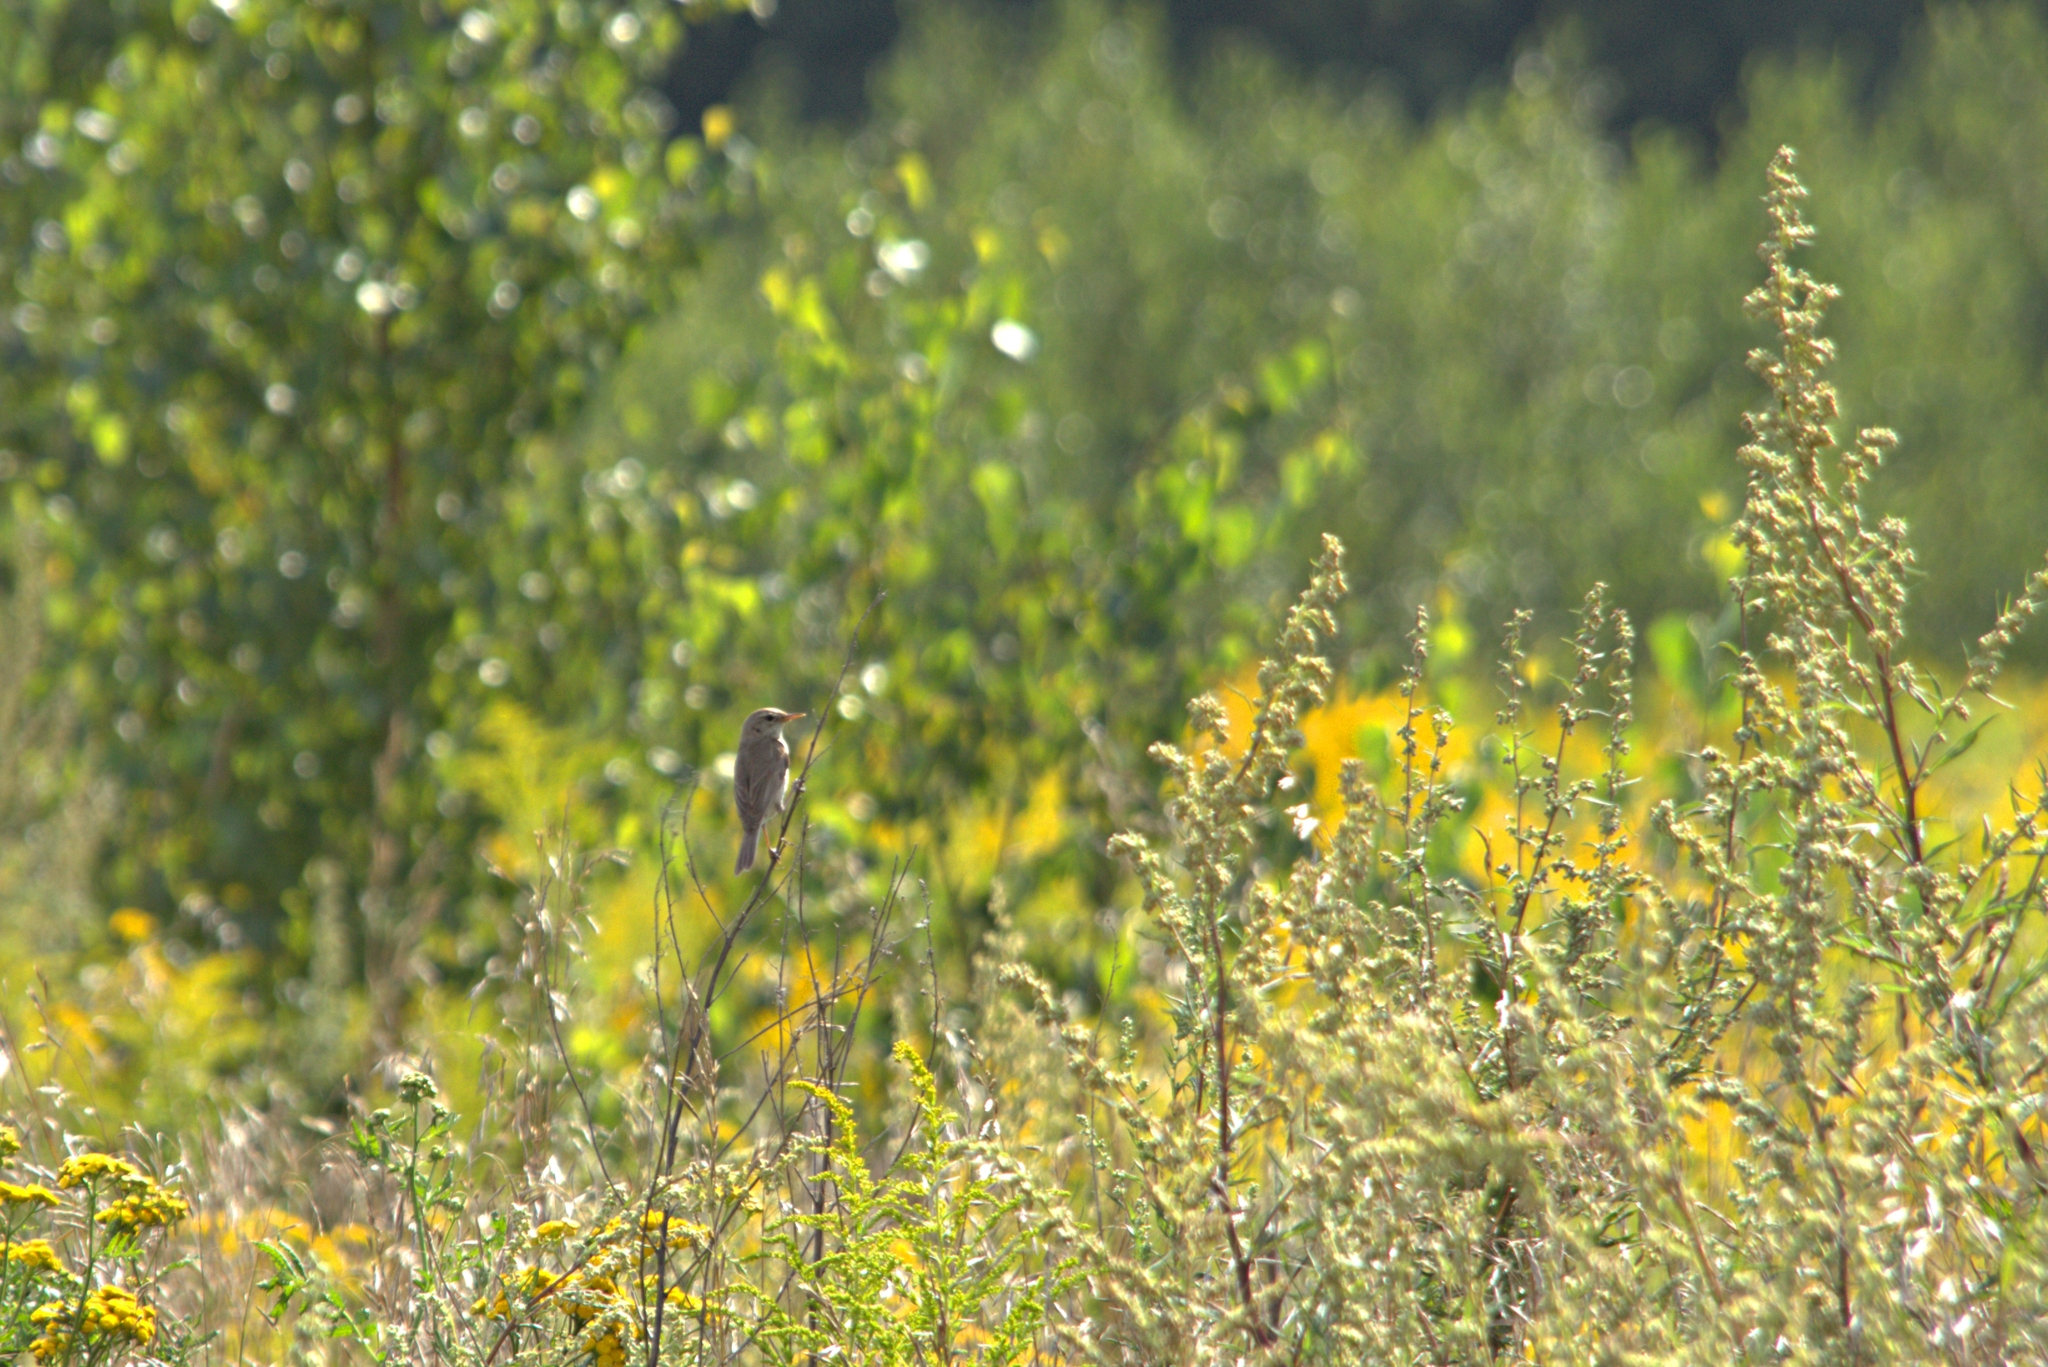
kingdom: Animalia
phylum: Chordata
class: Aves
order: Passeriformes
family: Acrocephalidae
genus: Iduna
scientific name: Iduna caligata
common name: Booted warbler
